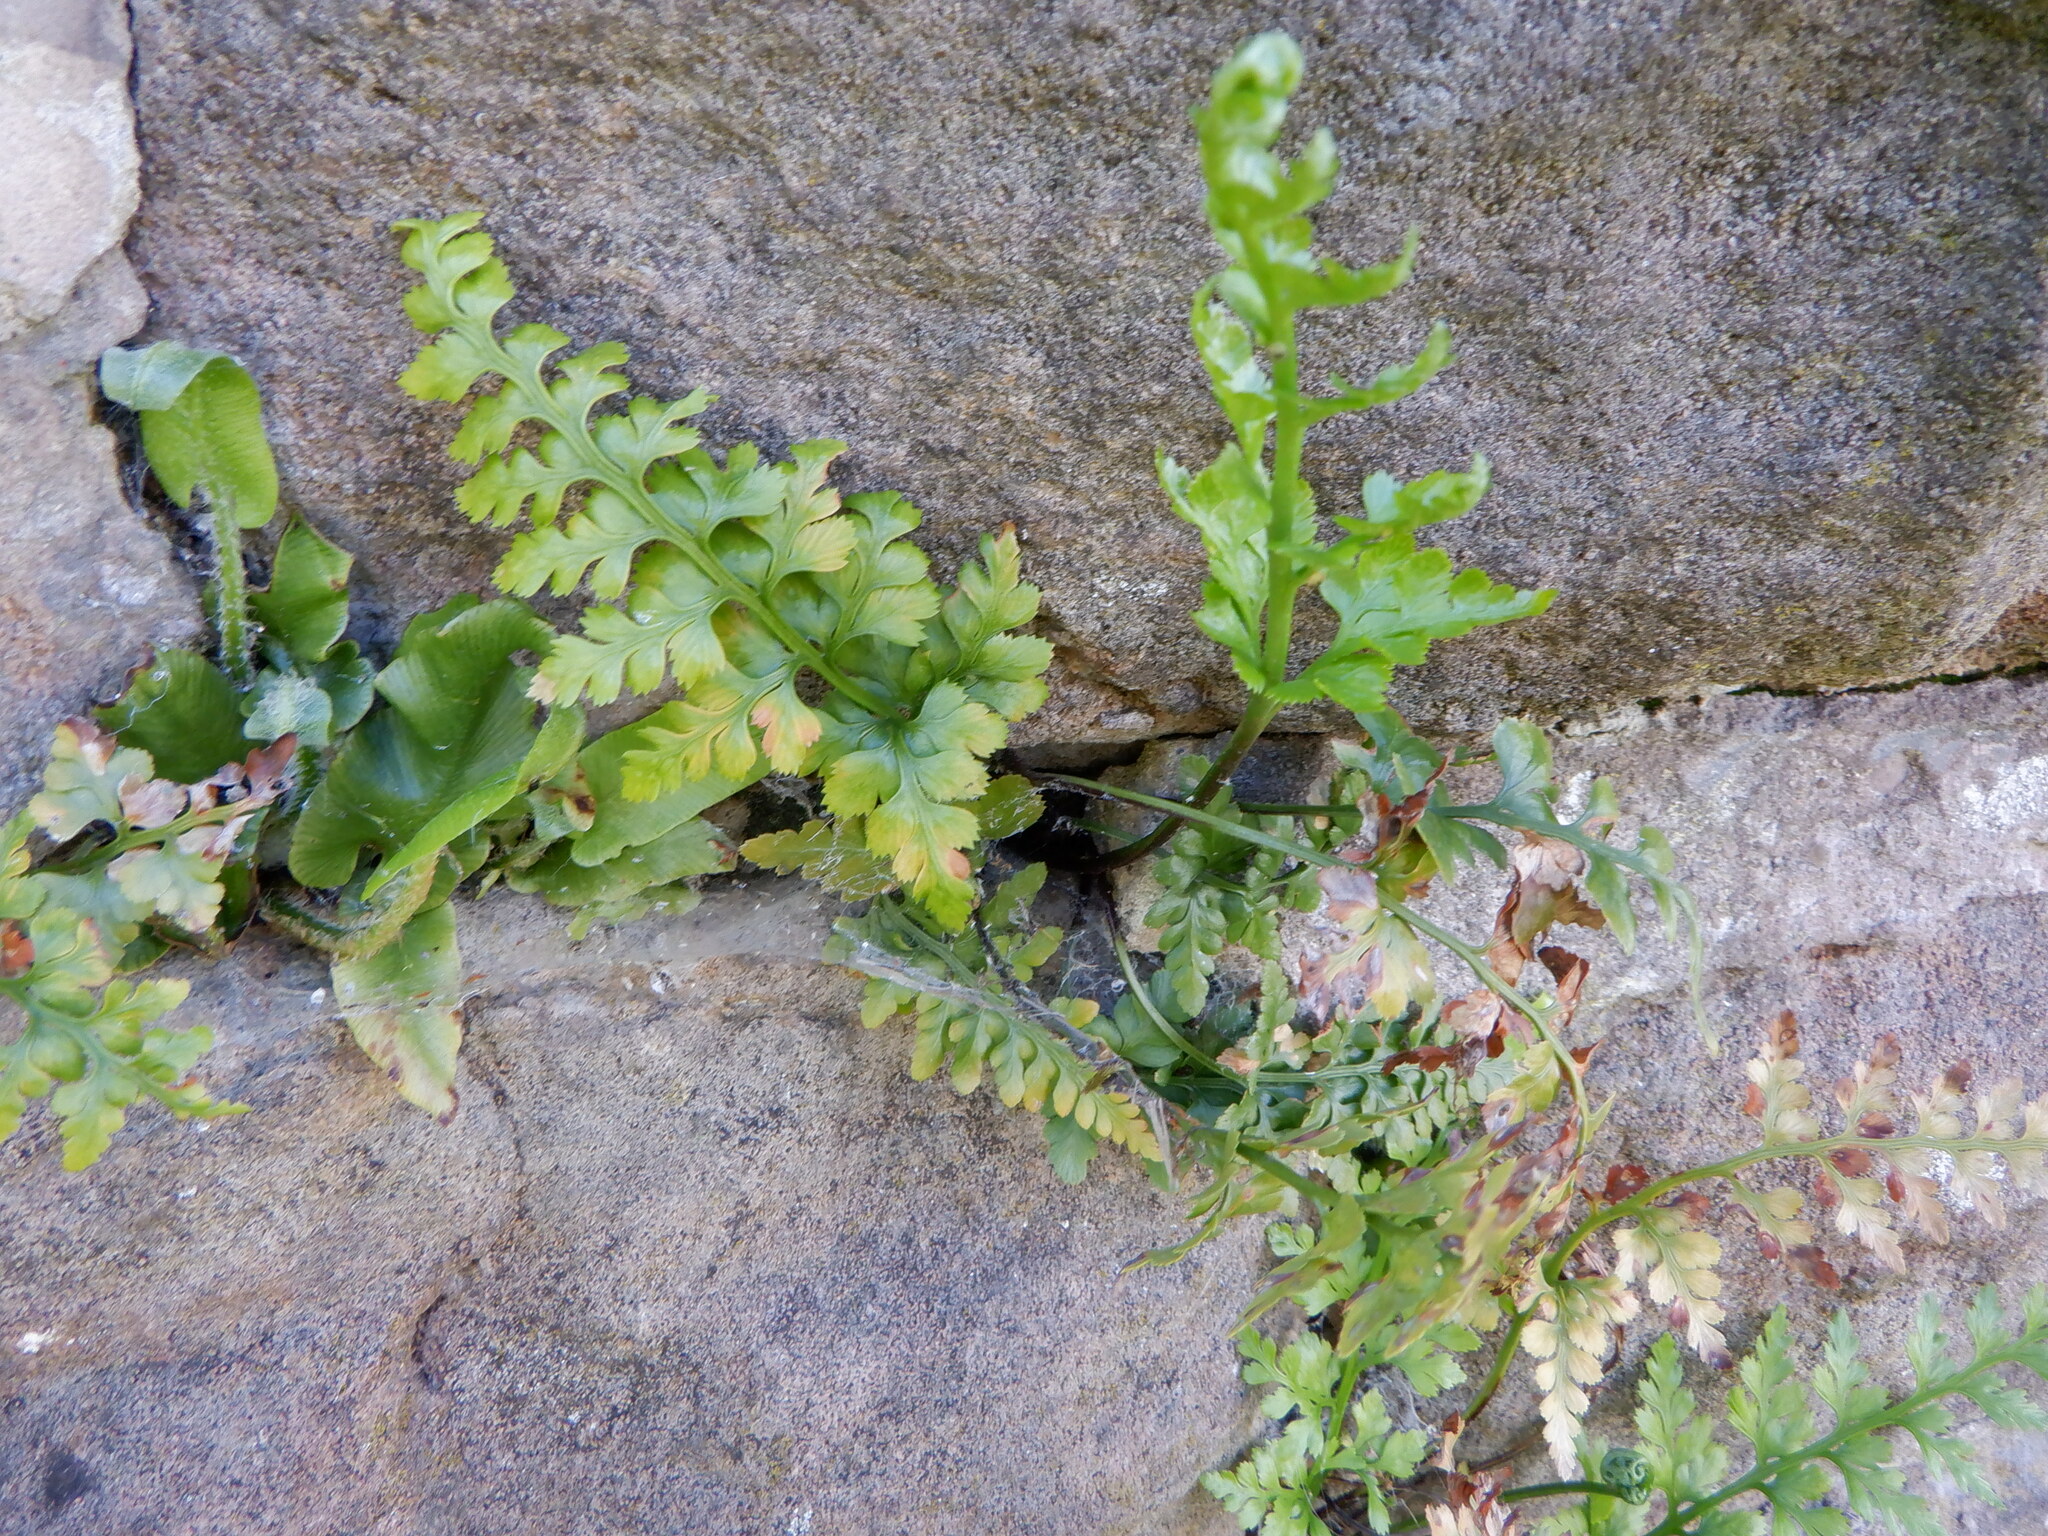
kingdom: Plantae
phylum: Tracheophyta
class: Polypodiopsida
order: Polypodiales
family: Aspleniaceae
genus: Asplenium
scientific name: Asplenium adiantum-nigrum
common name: Black spleenwort
